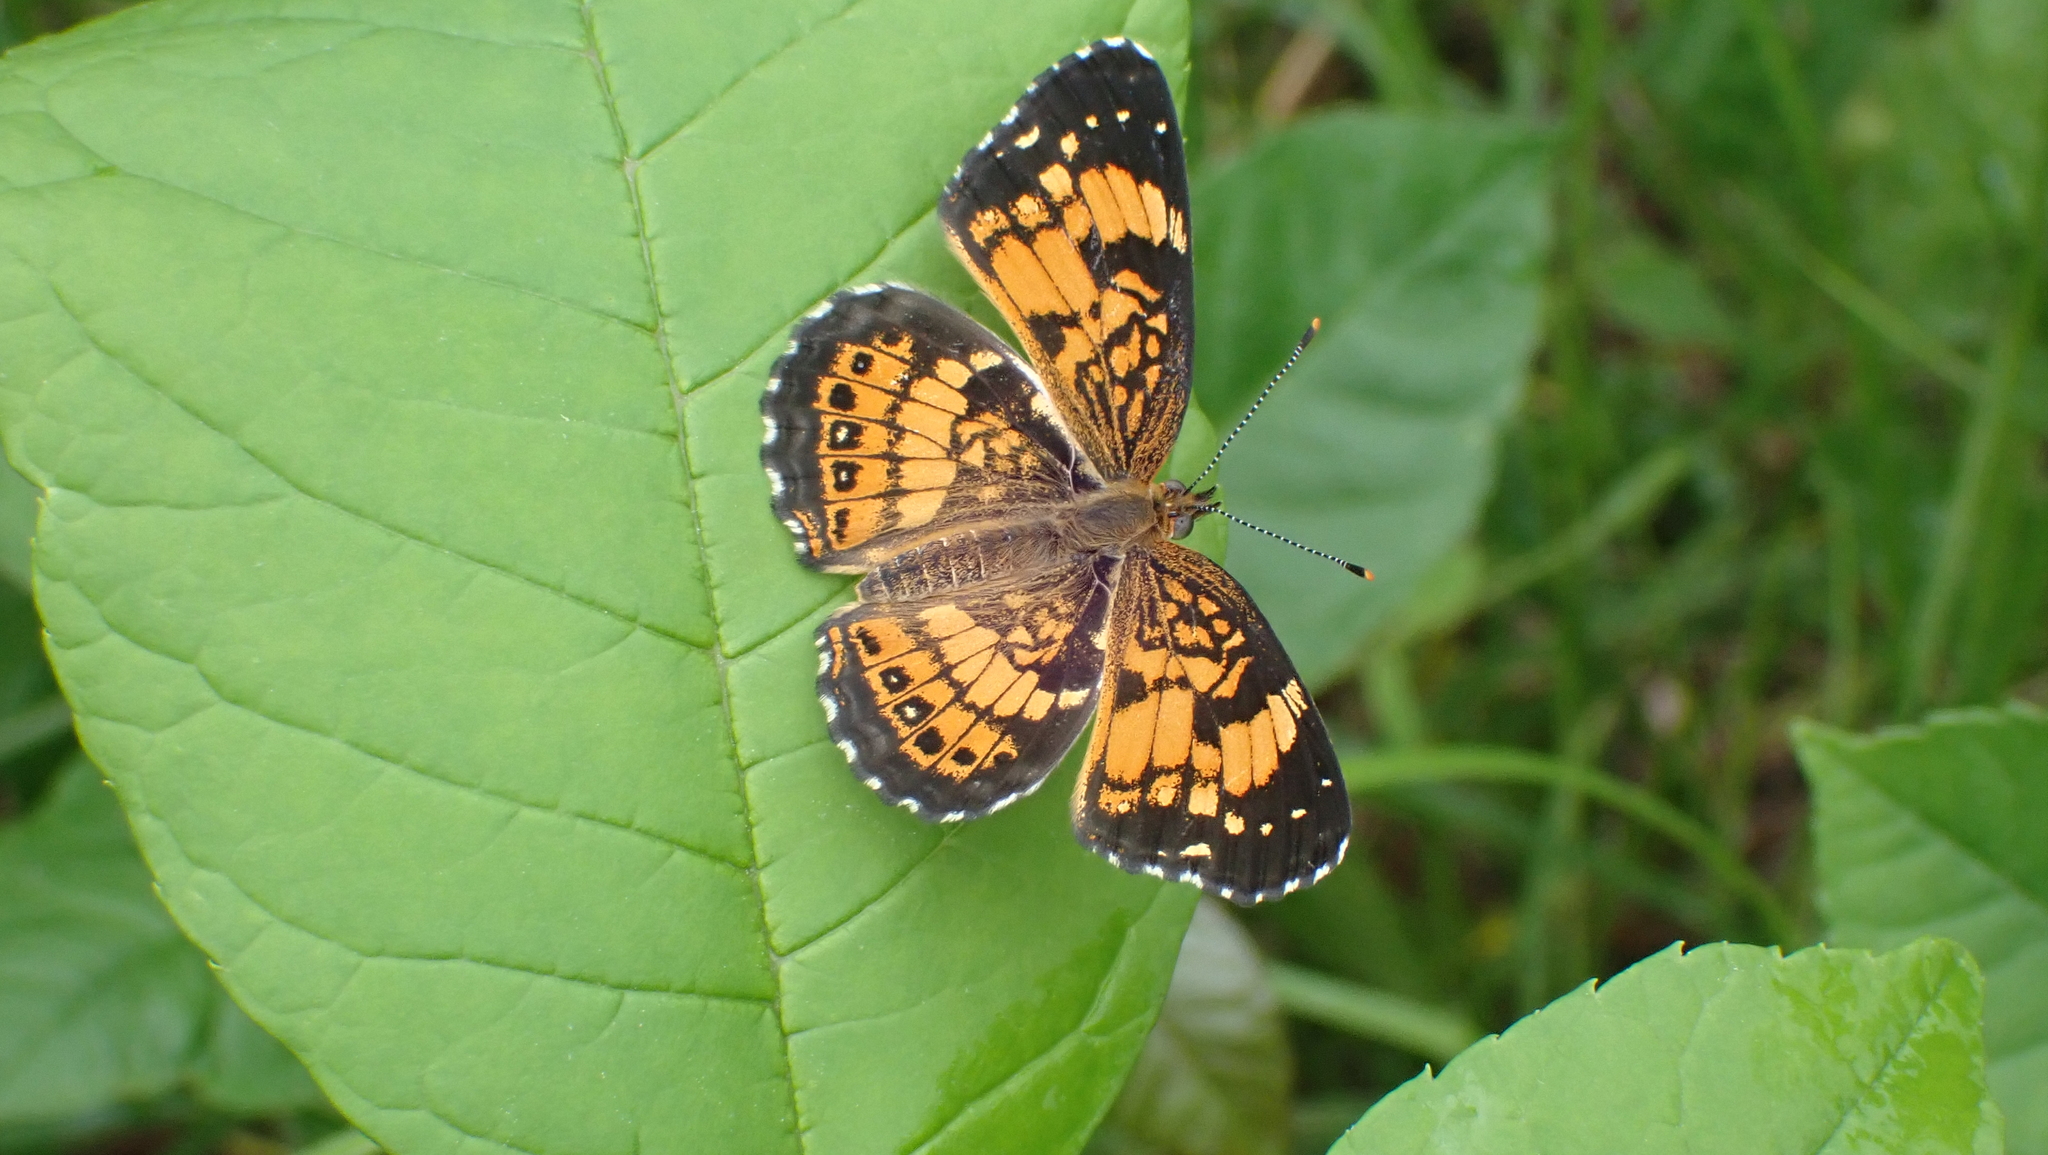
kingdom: Animalia
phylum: Arthropoda
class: Insecta
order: Lepidoptera
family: Nymphalidae
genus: Chlosyne
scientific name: Chlosyne nycteis
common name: Silvery checkerspot
